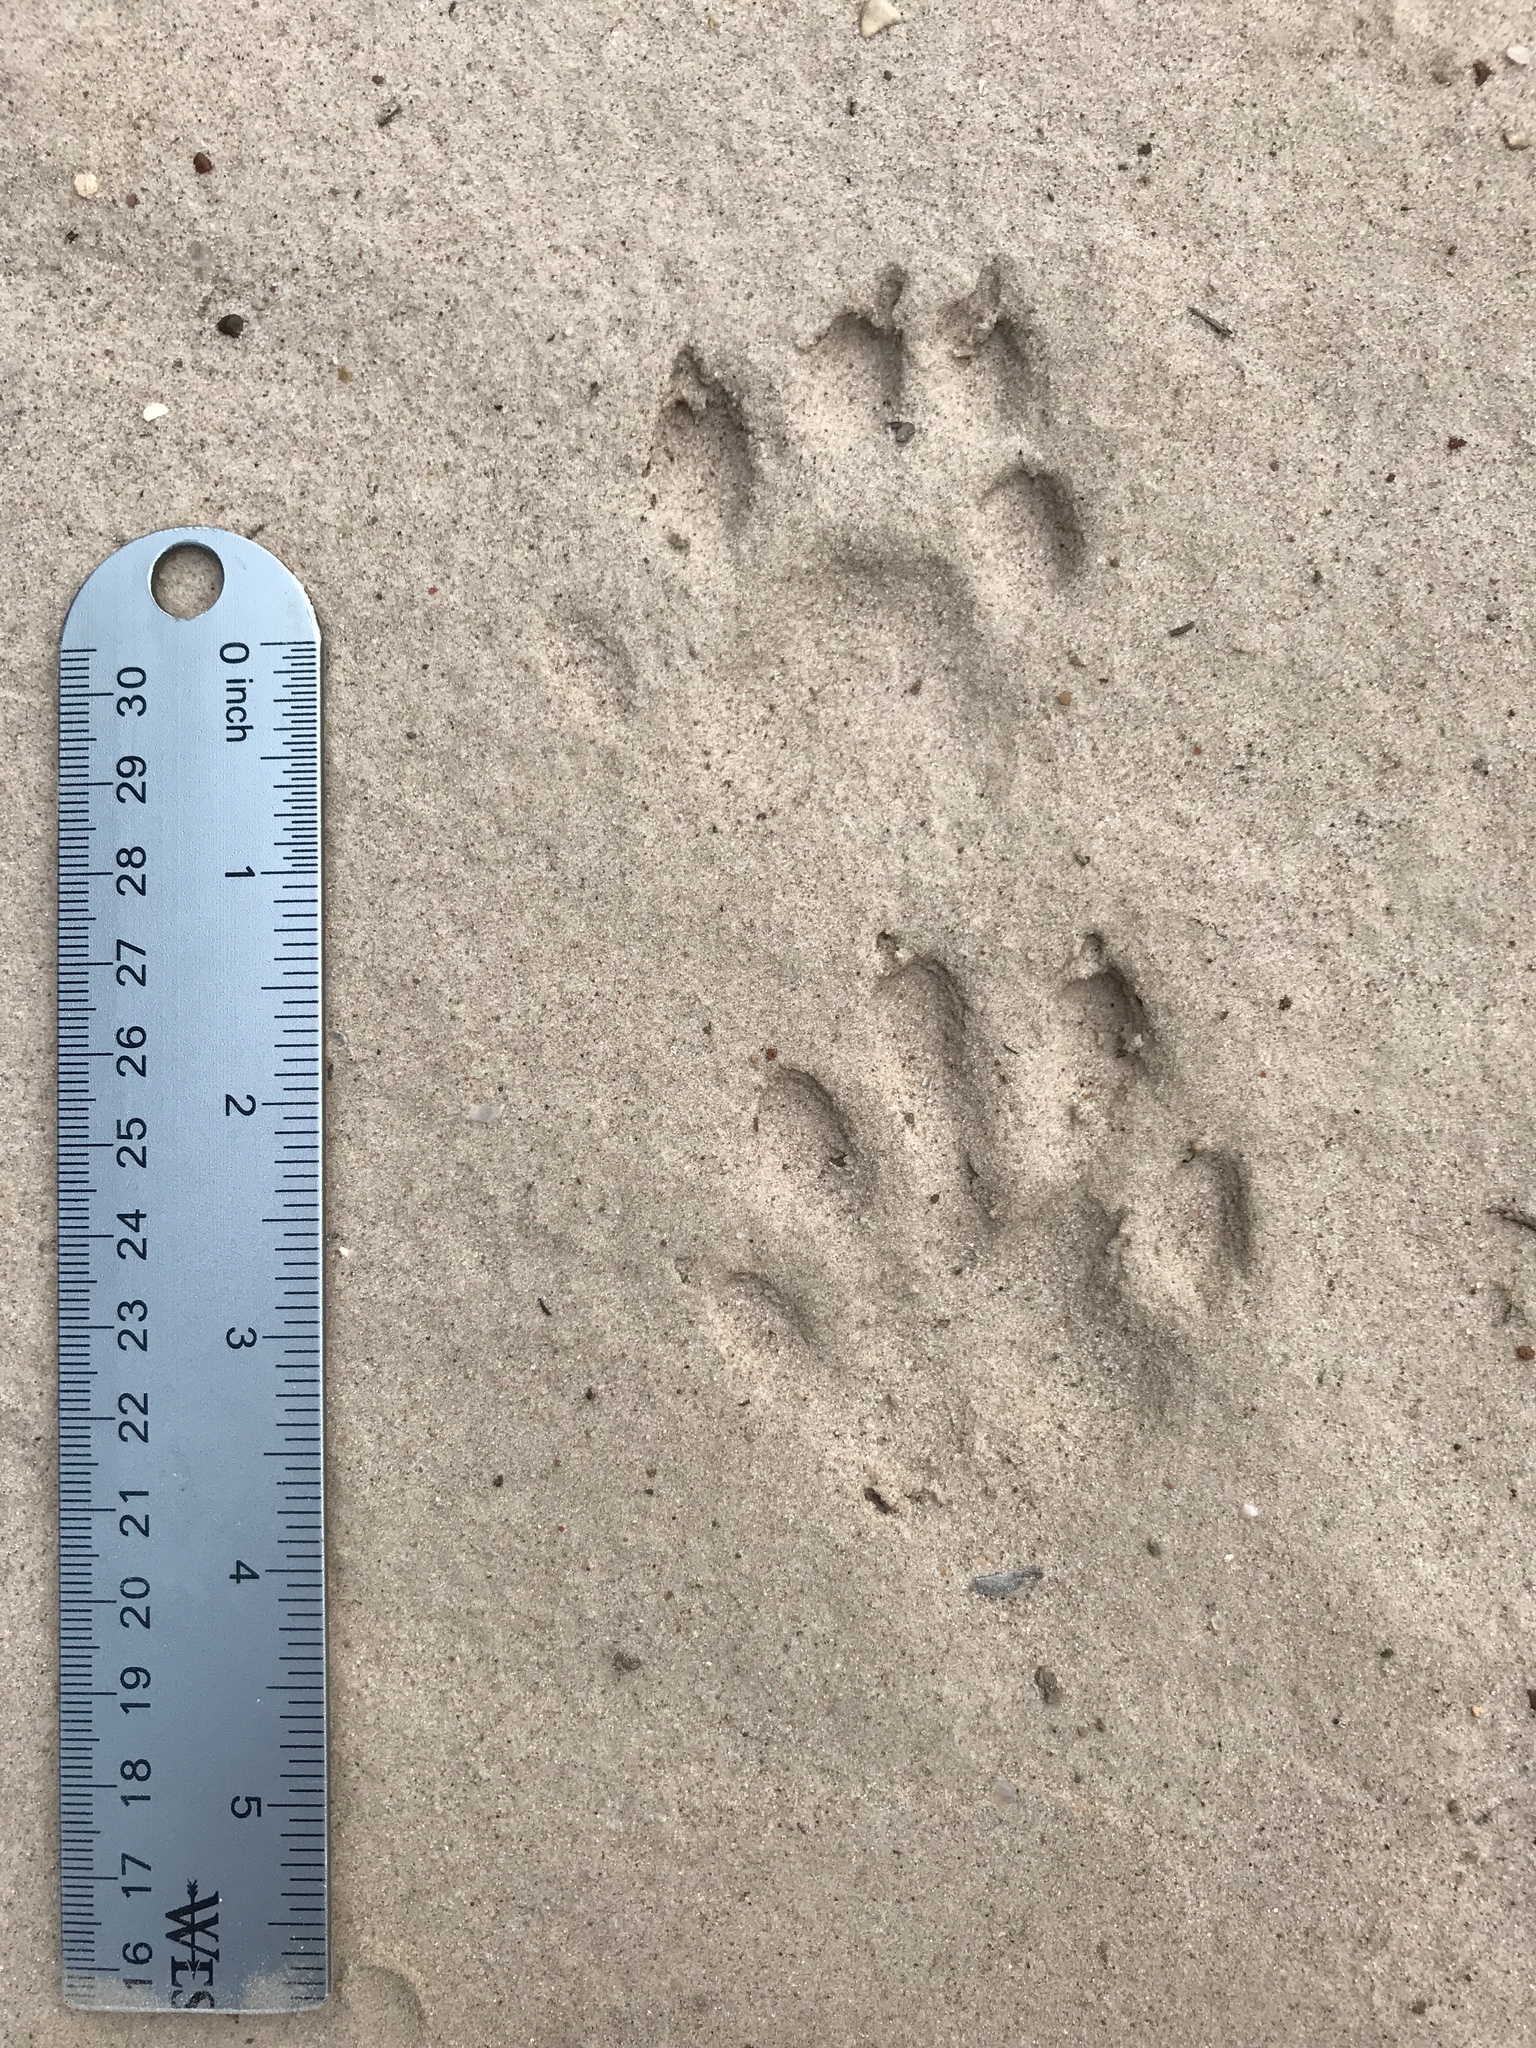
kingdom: Animalia
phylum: Chordata
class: Mammalia
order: Carnivora
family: Mustelidae
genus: Lontra
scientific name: Lontra canadensis
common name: North american river otter
